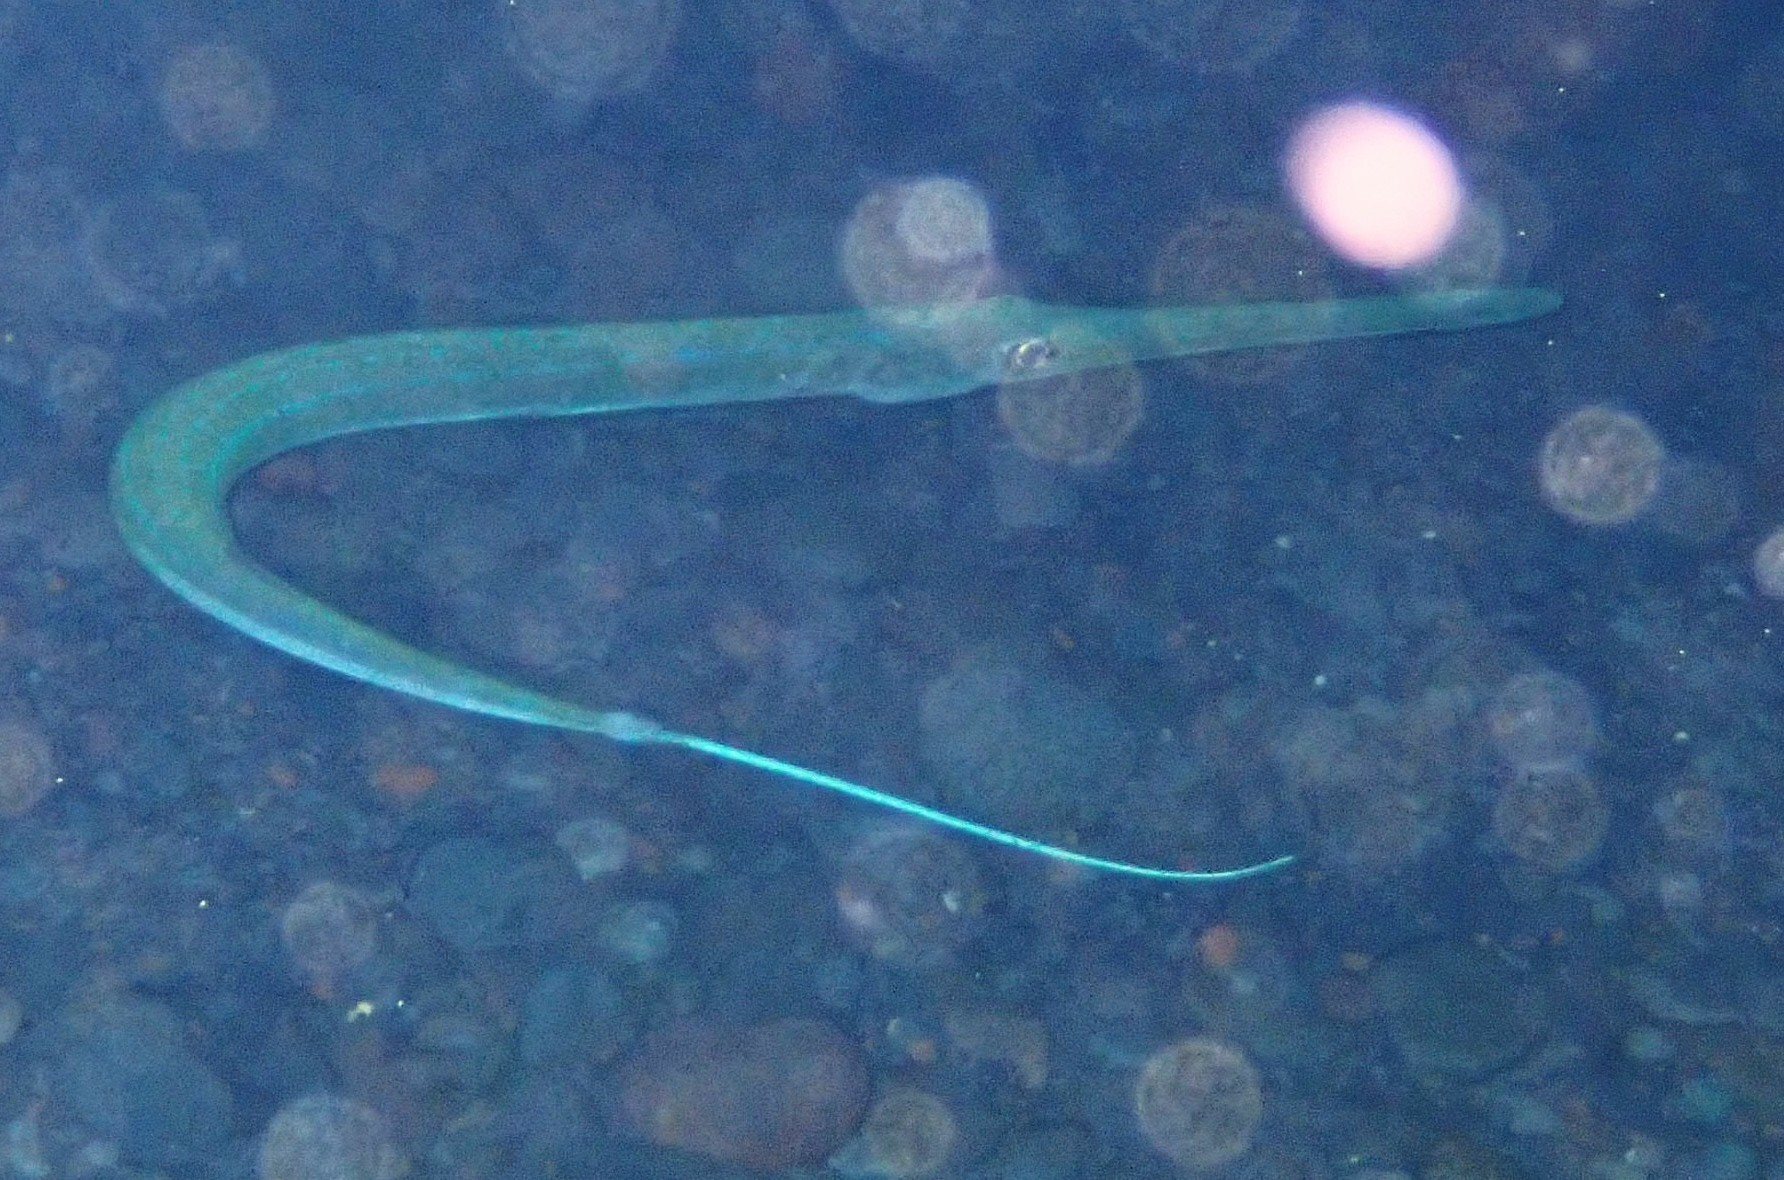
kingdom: Animalia
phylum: Chordata
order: Syngnathiformes
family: Fistulariidae
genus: Fistularia
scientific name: Fistularia commersonii
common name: Bluespotted cornetfish
